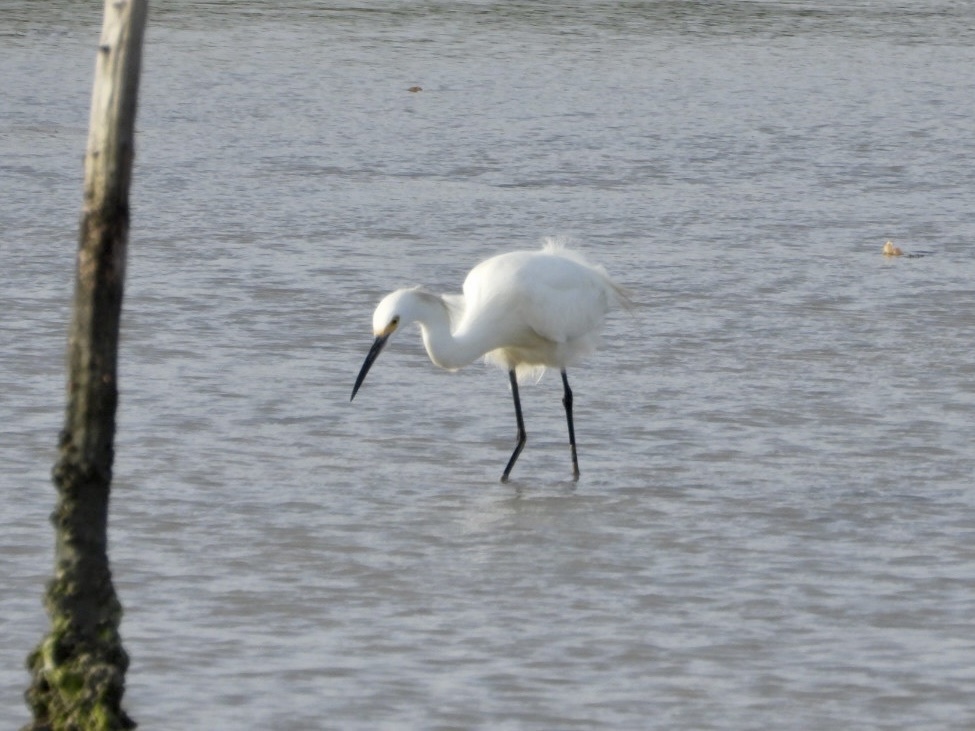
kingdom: Animalia
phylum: Chordata
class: Aves
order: Pelecaniformes
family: Ardeidae
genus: Egretta
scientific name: Egretta thula
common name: Snowy egret
